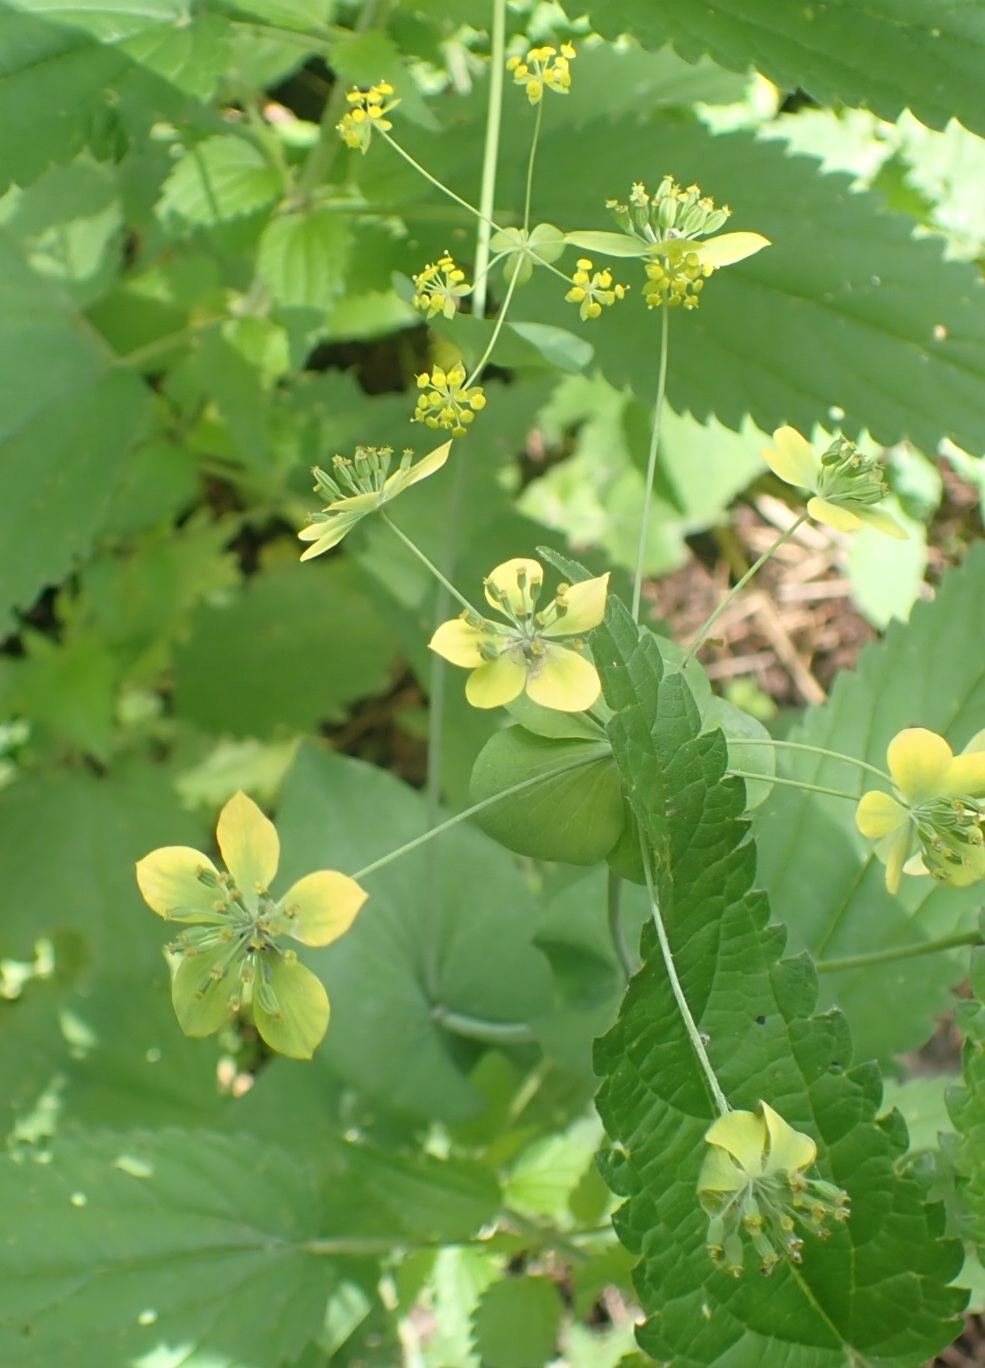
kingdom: Plantae
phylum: Tracheophyta
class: Magnoliopsida
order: Apiales
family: Apiaceae
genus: Bupleurum
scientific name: Bupleurum aureum
